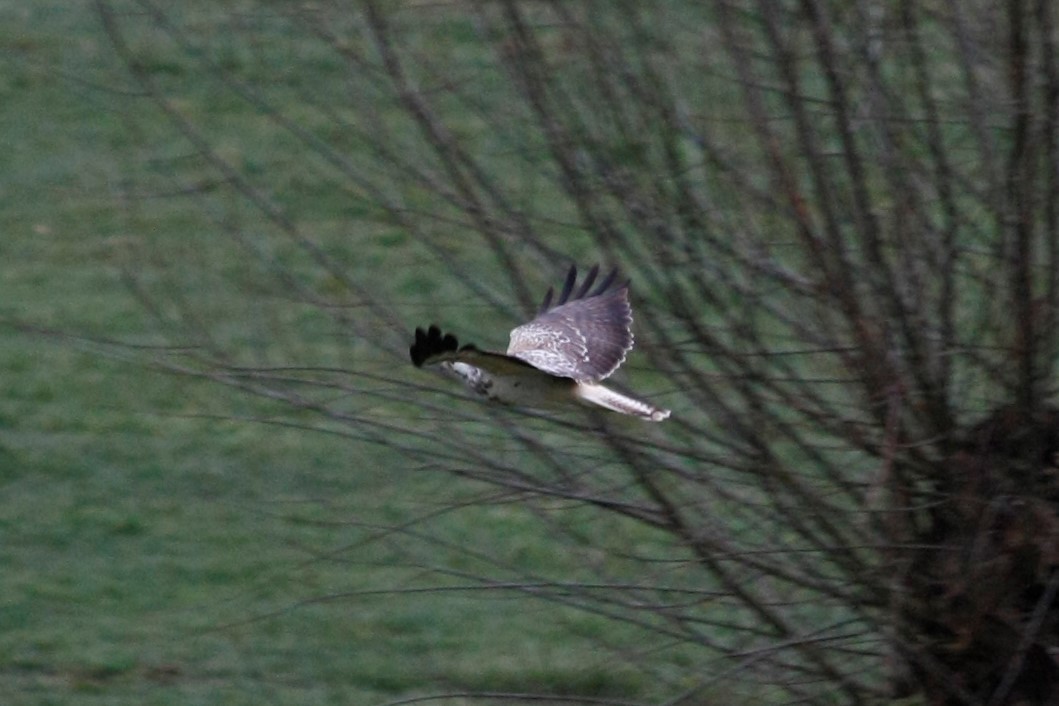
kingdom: Animalia
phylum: Chordata
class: Aves
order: Accipitriformes
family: Accipitridae
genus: Buteo
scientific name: Buteo buteo
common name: Common buzzard
